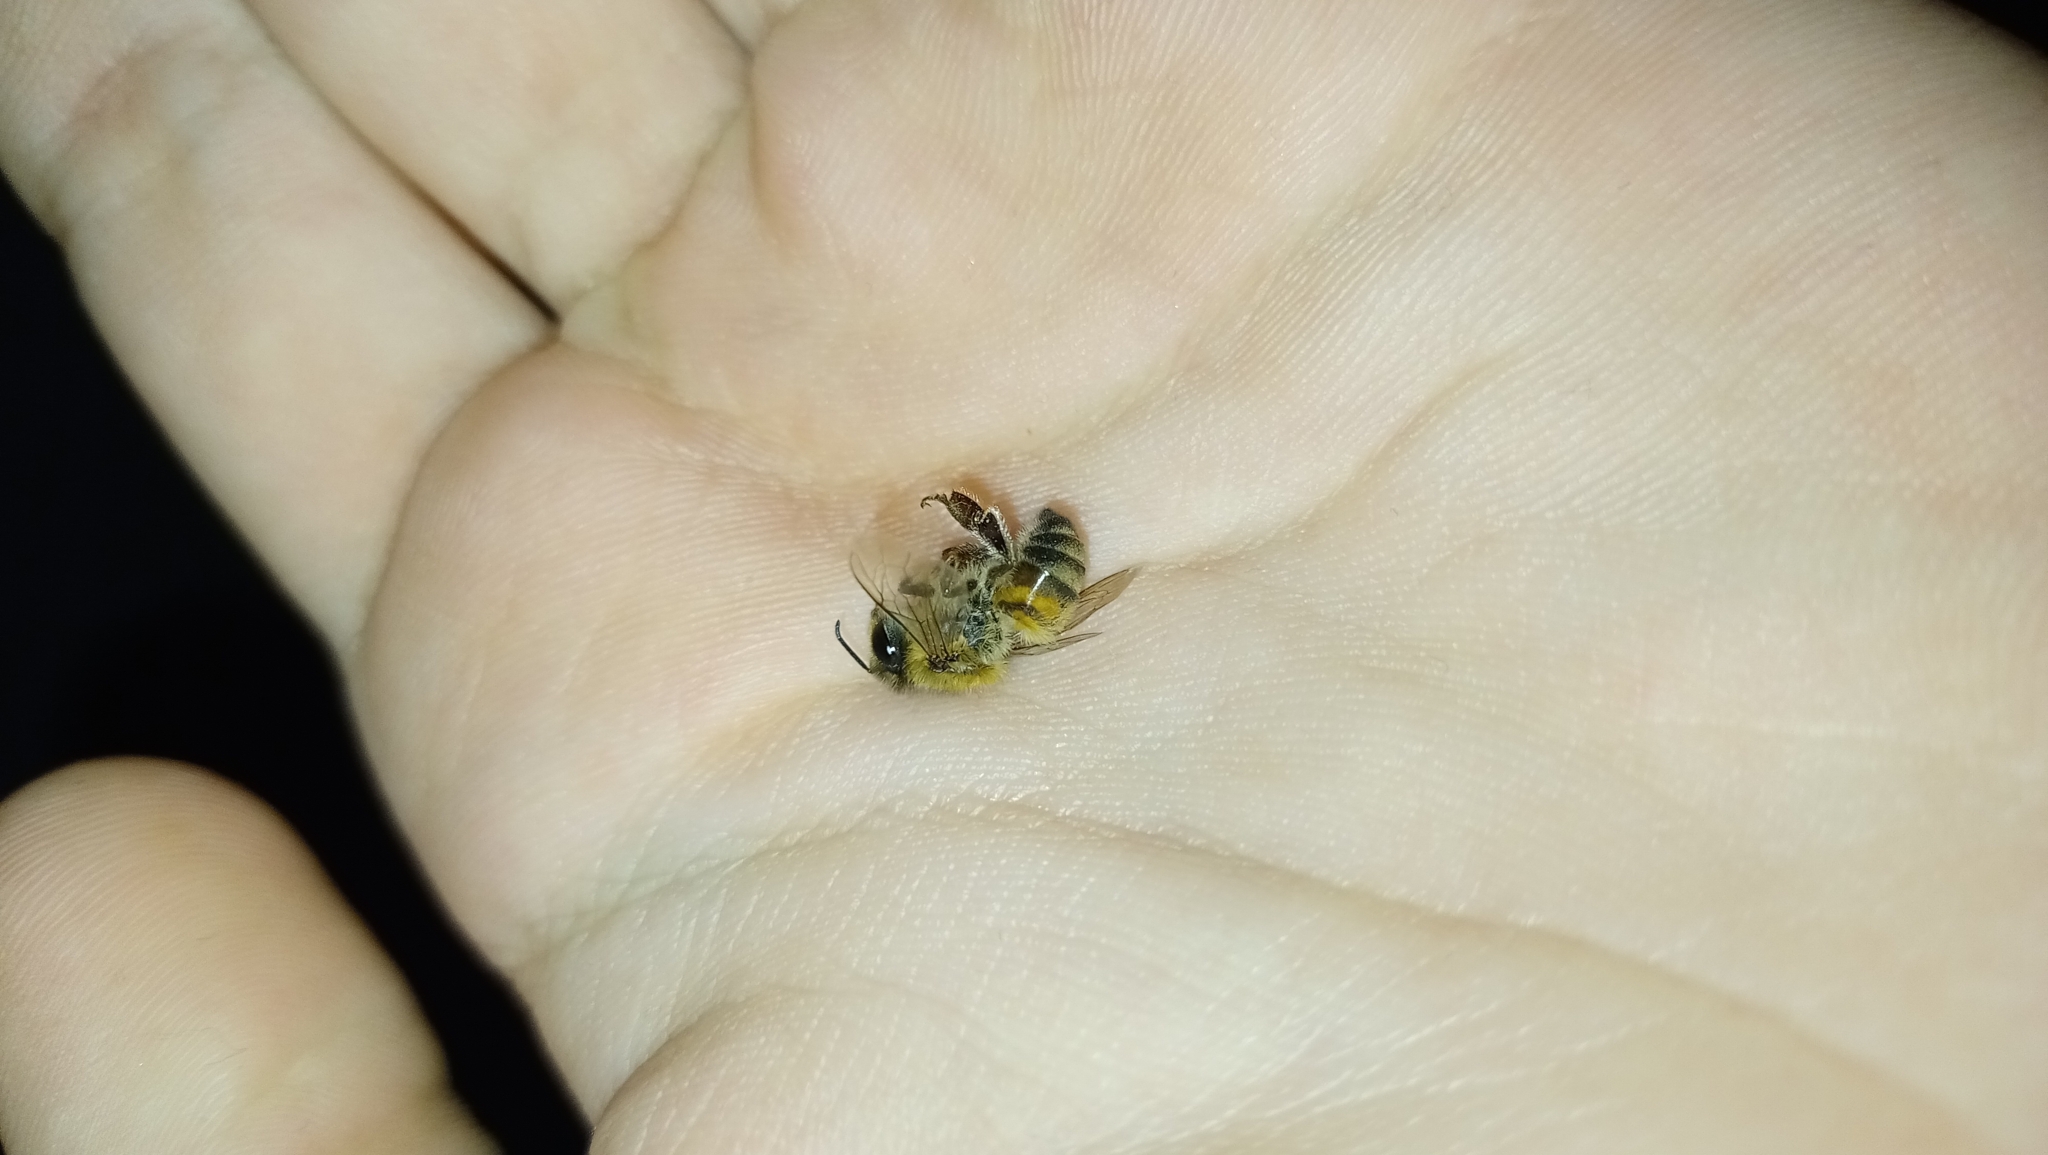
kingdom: Animalia
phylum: Arthropoda
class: Insecta
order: Hymenoptera
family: Apidae
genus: Apis
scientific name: Apis mellifera
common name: Honey bee
